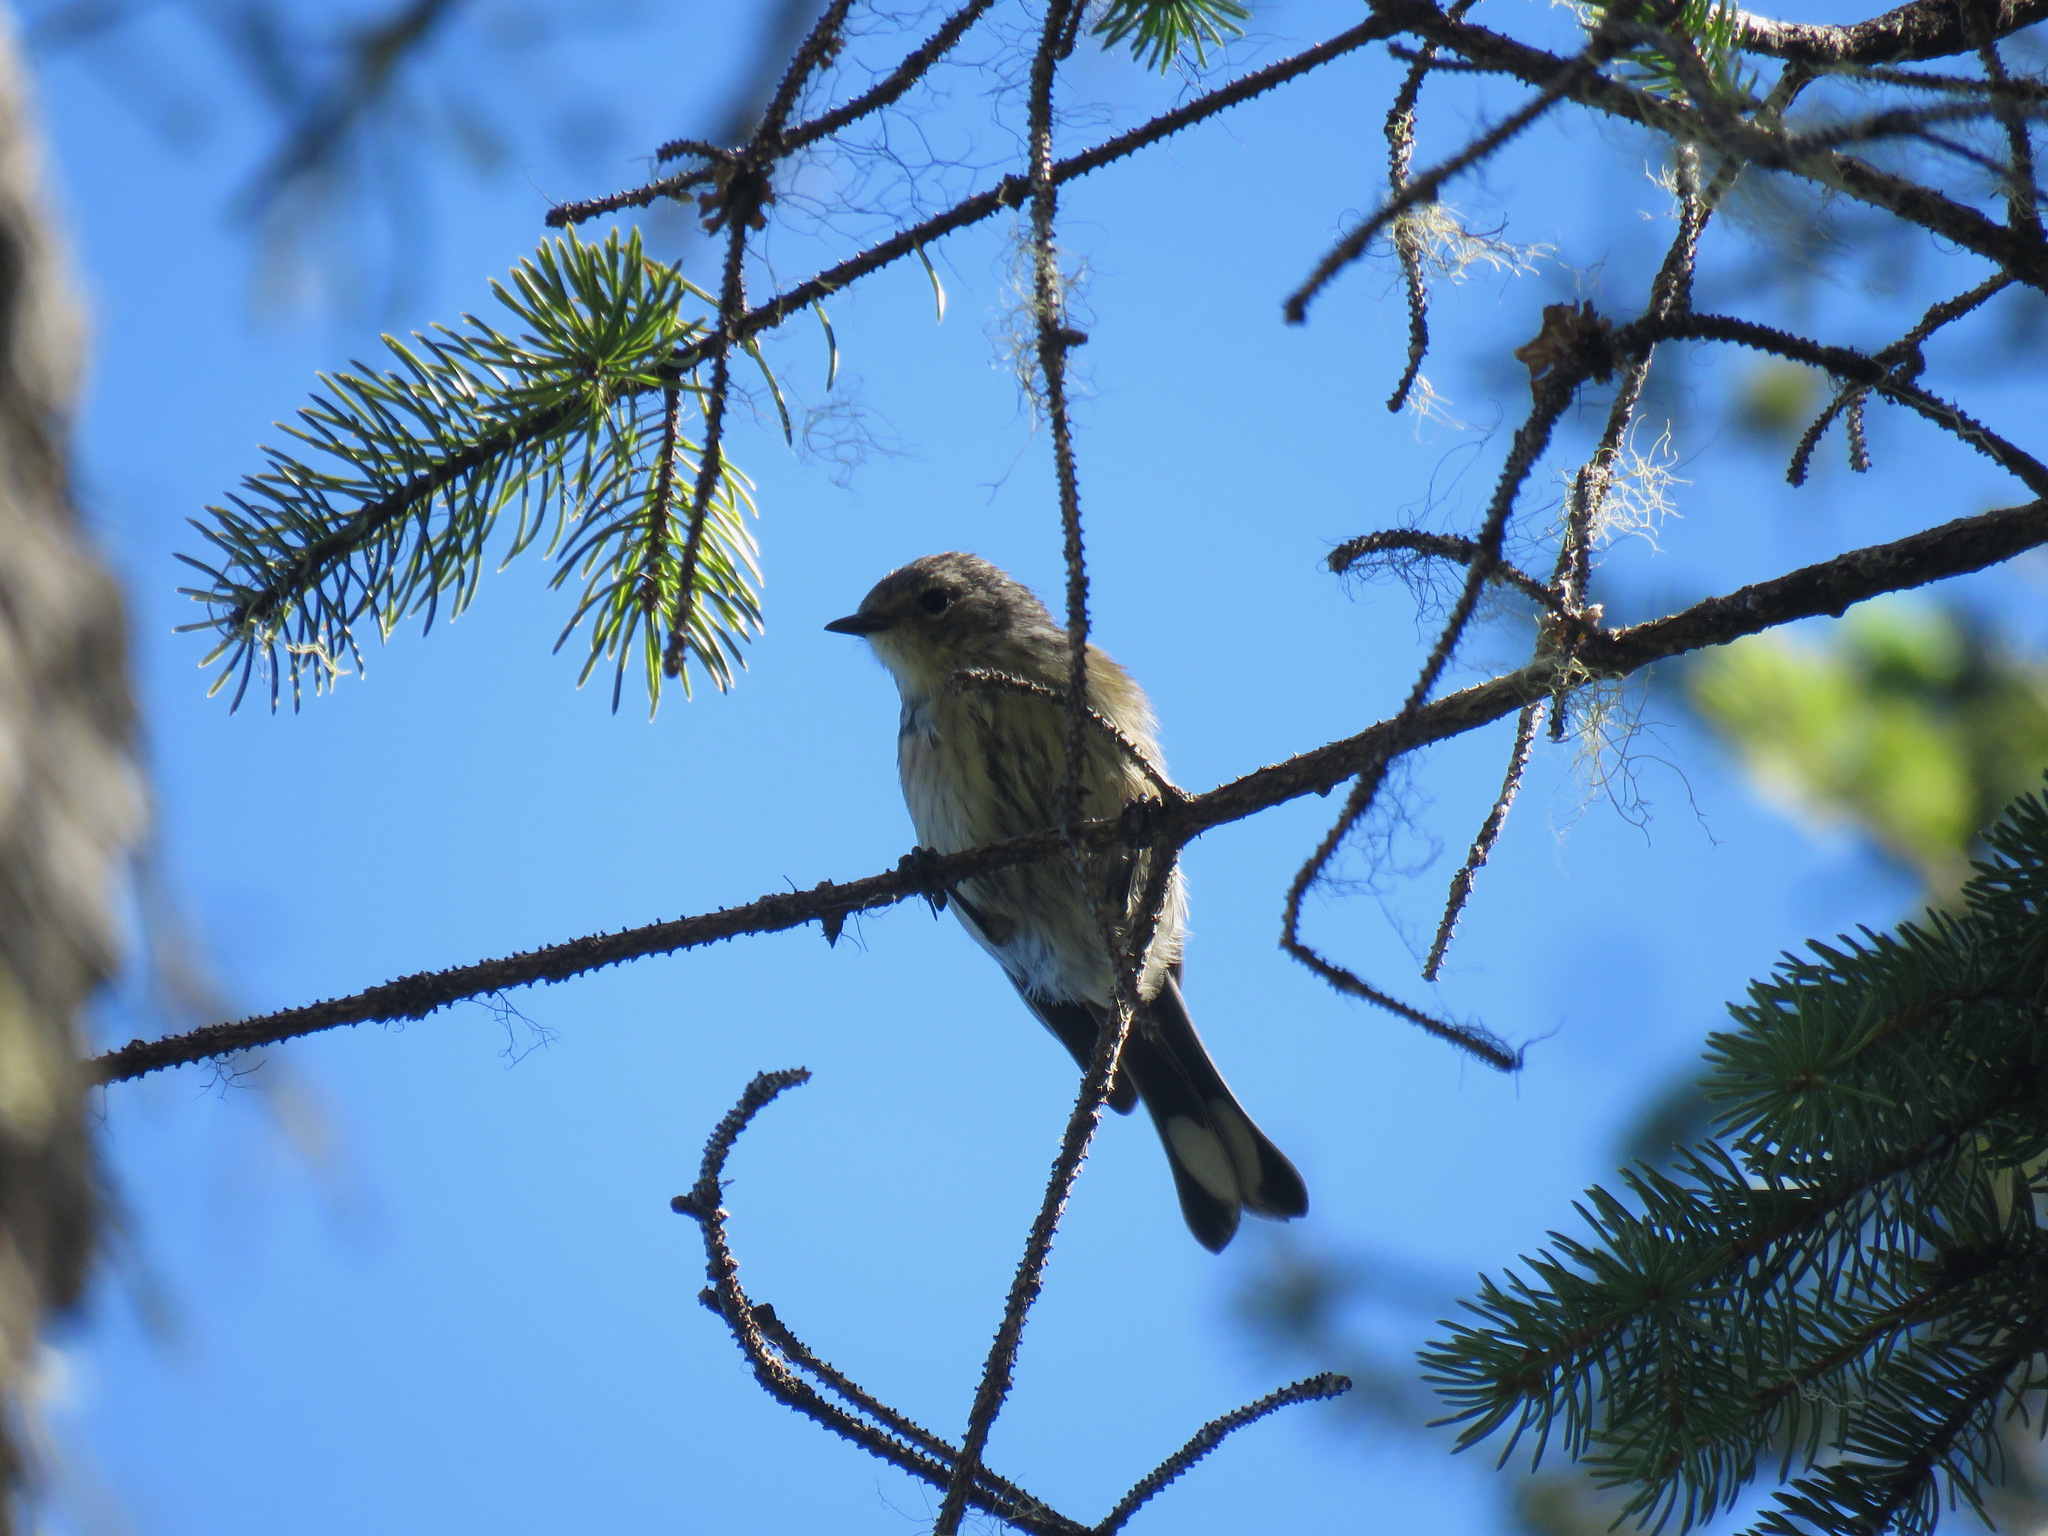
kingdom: Animalia
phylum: Chordata
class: Aves
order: Passeriformes
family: Parulidae
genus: Setophaga
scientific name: Setophaga coronata
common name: Myrtle warbler
